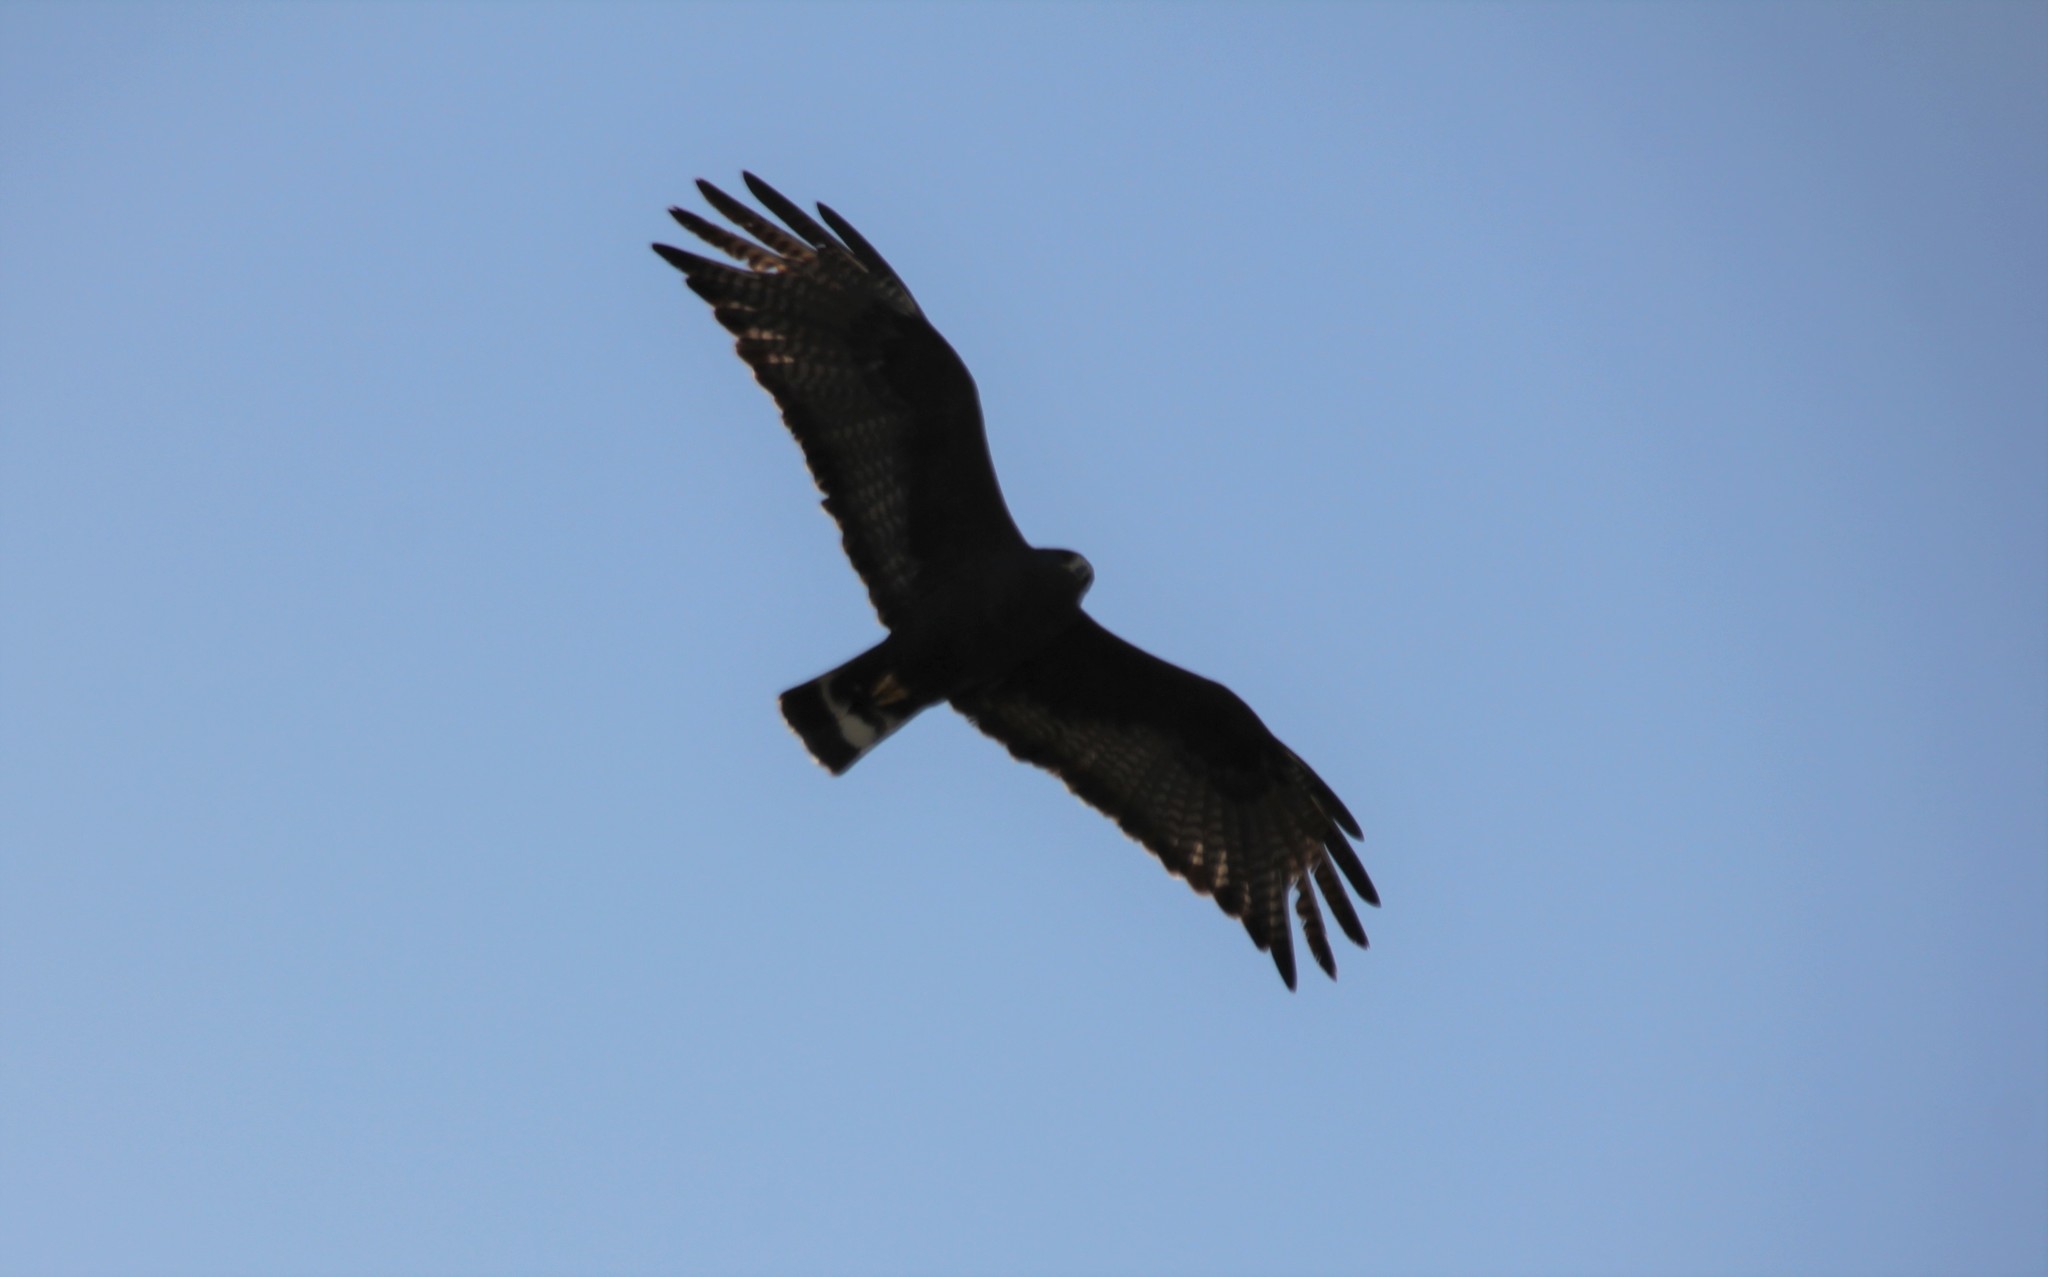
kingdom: Animalia
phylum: Chordata
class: Aves
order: Accipitriformes
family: Accipitridae
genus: Buteo
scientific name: Buteo albonotatus
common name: Zone-tailed hawk
